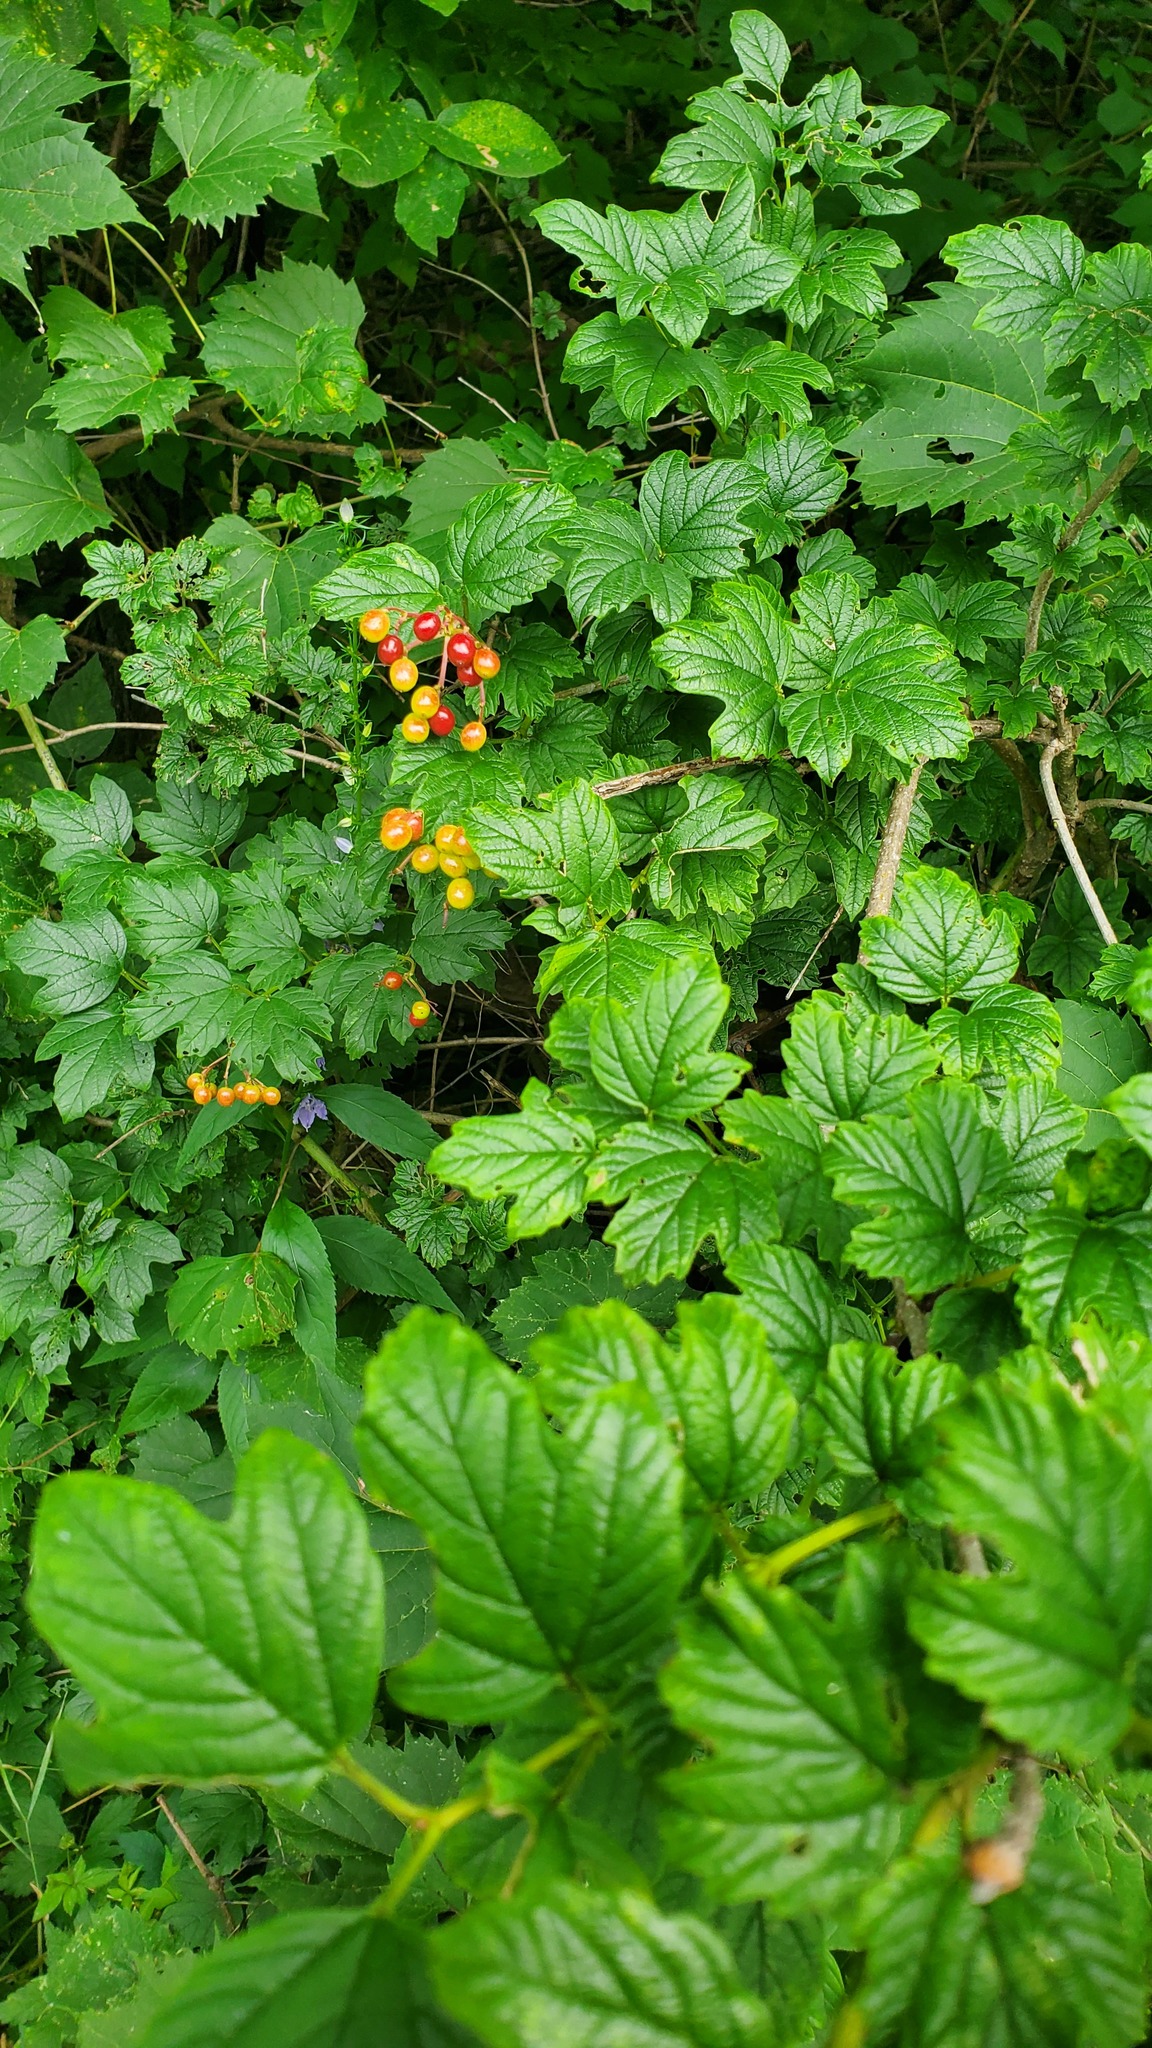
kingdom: Plantae
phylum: Tracheophyta
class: Magnoliopsida
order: Dipsacales
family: Viburnaceae
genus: Viburnum
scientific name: Viburnum opulus
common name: Guelder-rose
